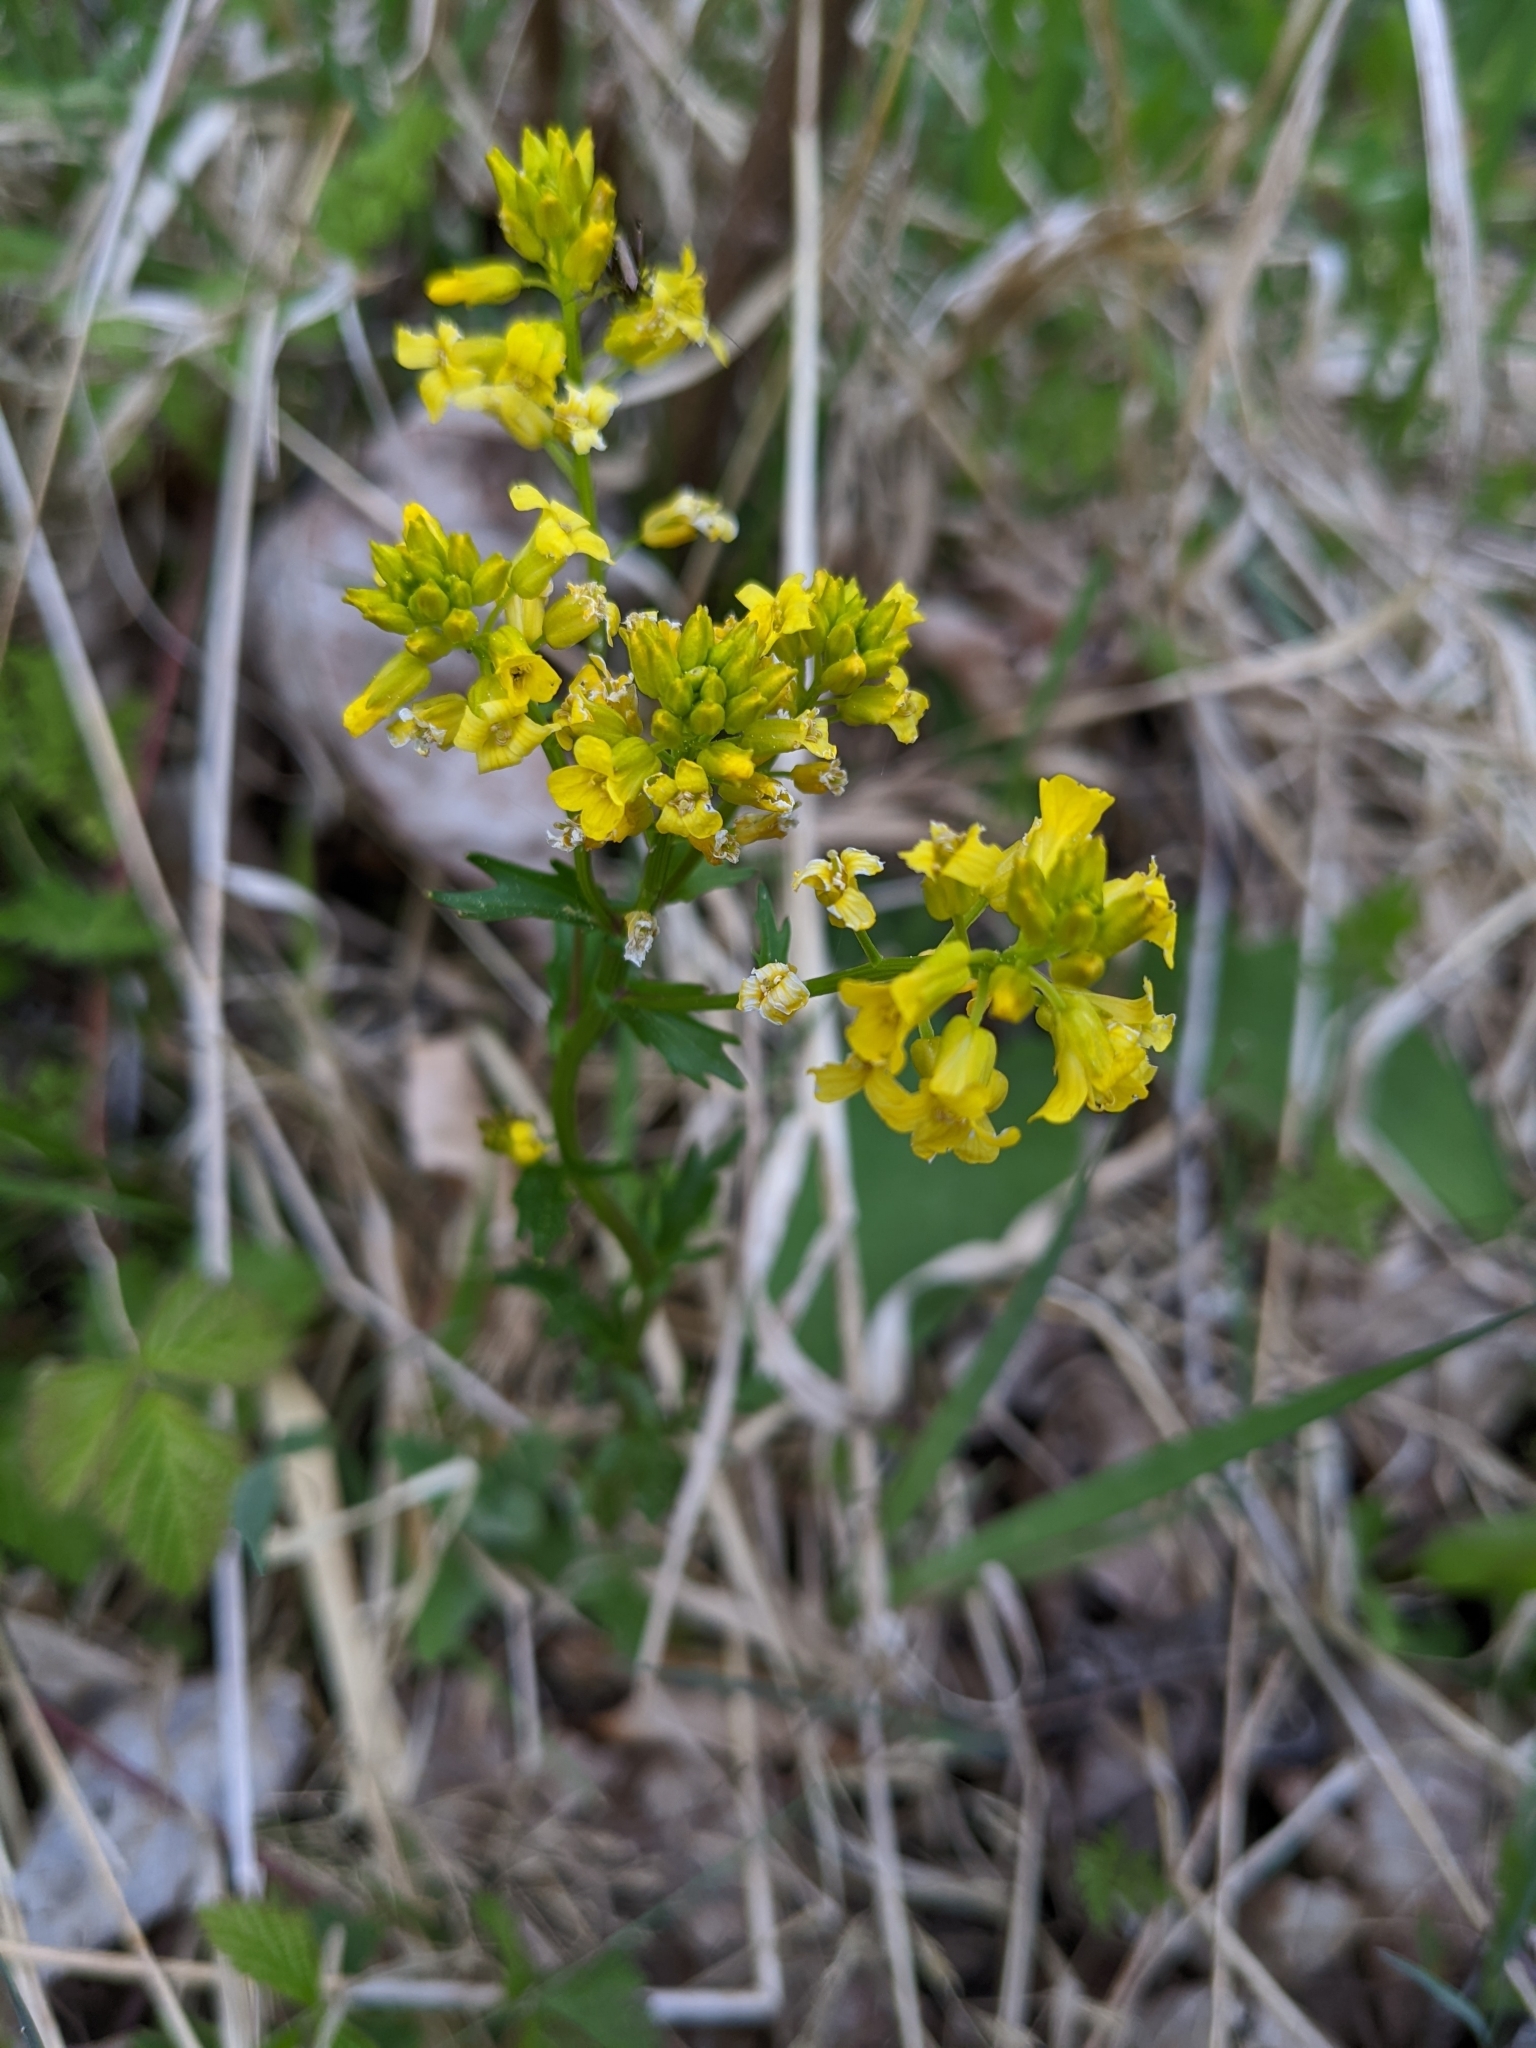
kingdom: Plantae
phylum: Tracheophyta
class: Magnoliopsida
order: Brassicales
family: Brassicaceae
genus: Barbarea
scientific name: Barbarea vulgaris
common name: Cressy-greens
